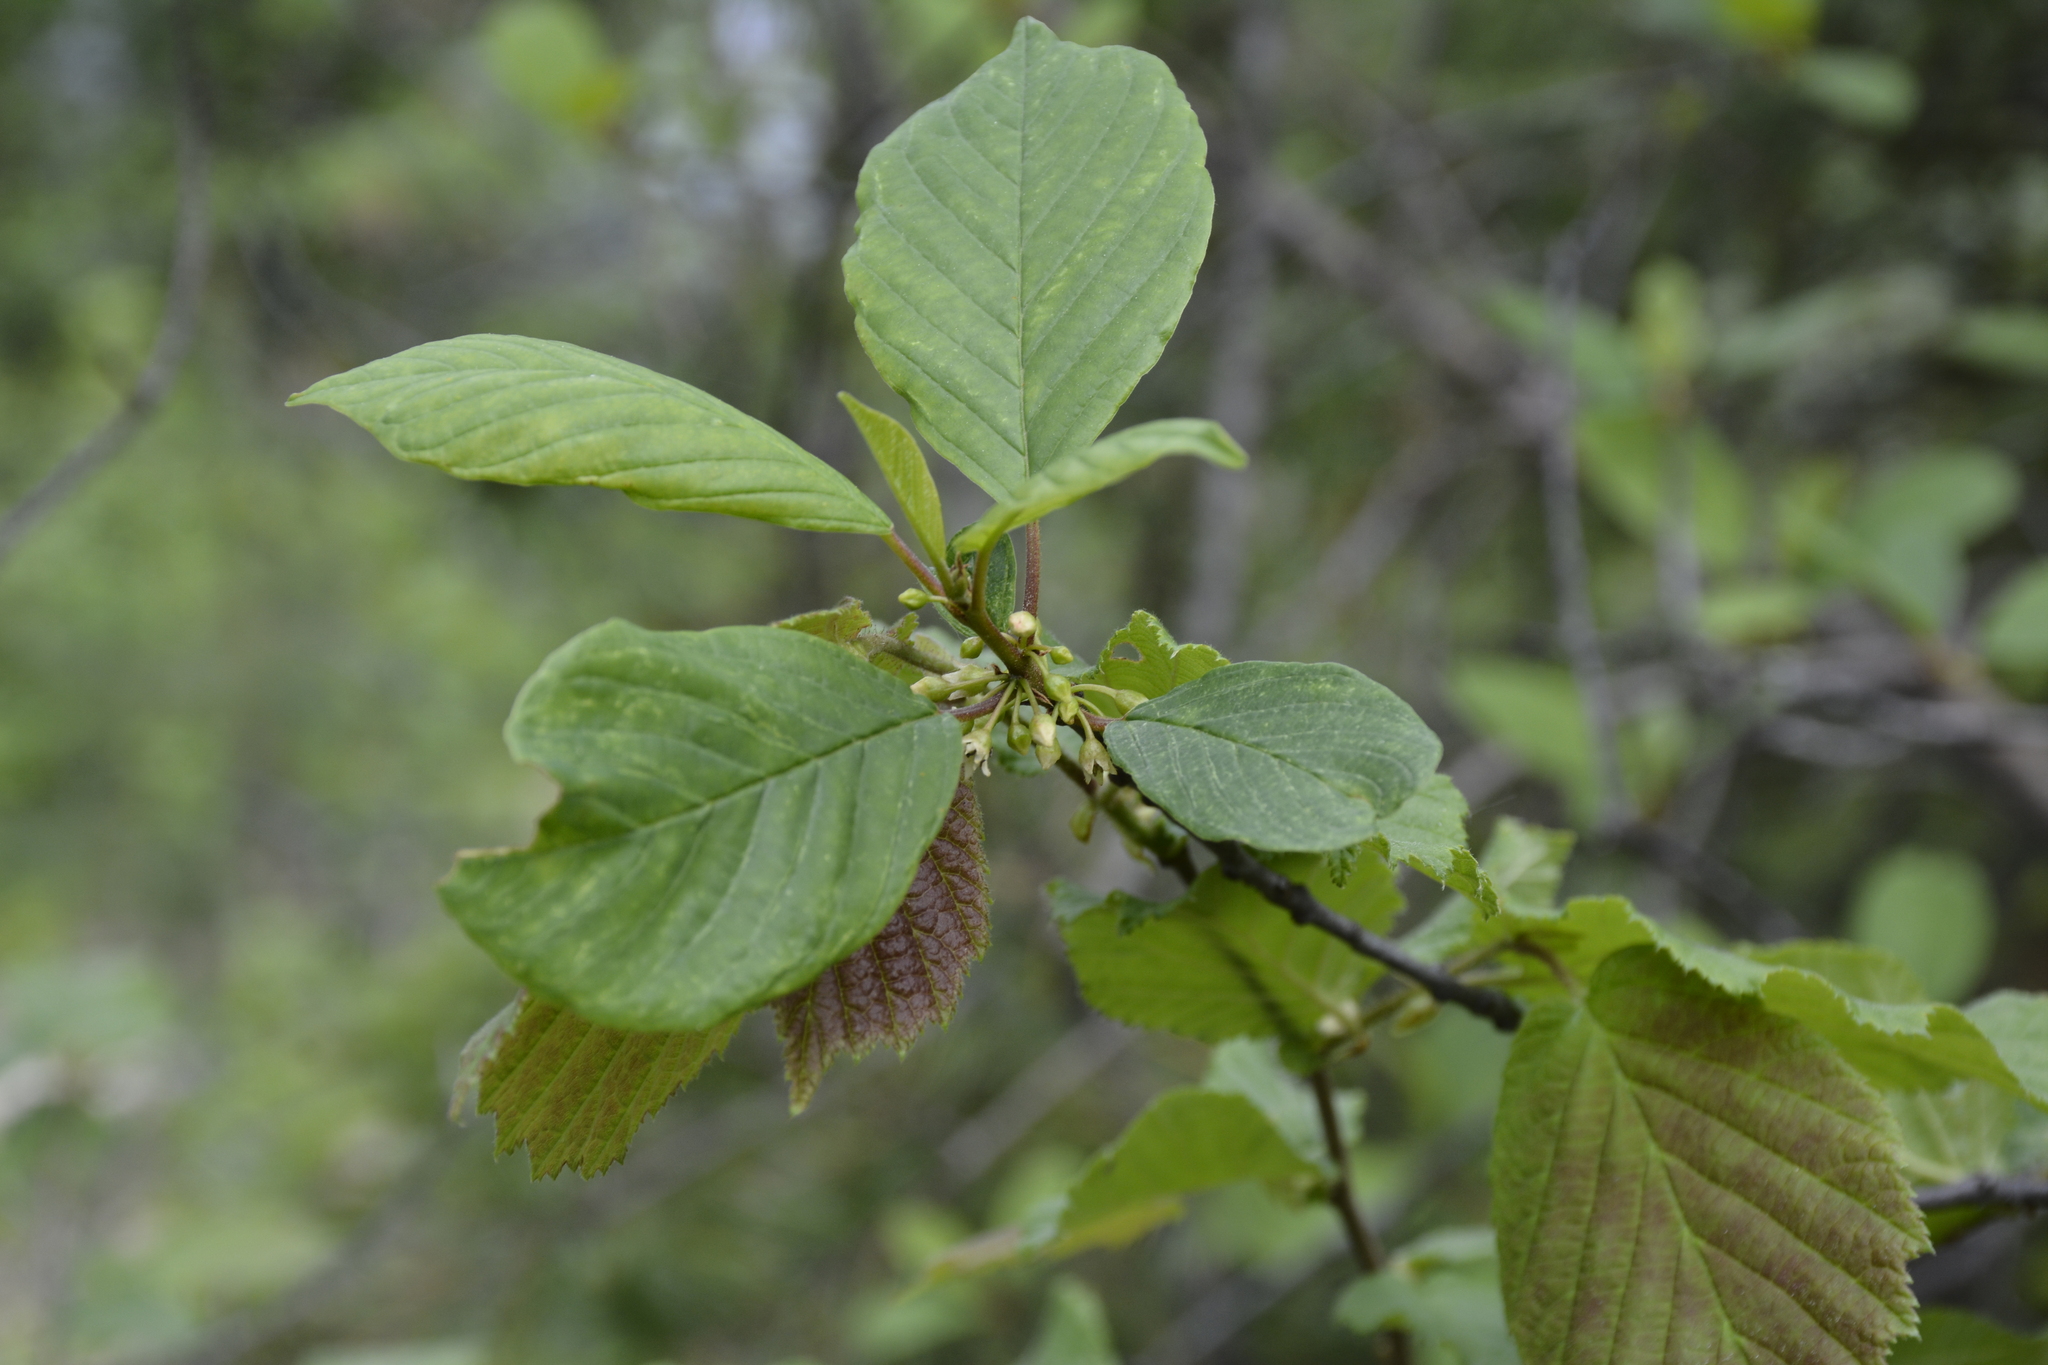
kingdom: Plantae
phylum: Tracheophyta
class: Magnoliopsida
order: Rosales
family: Rhamnaceae
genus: Frangula
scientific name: Frangula alnus
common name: Alder buckthorn
